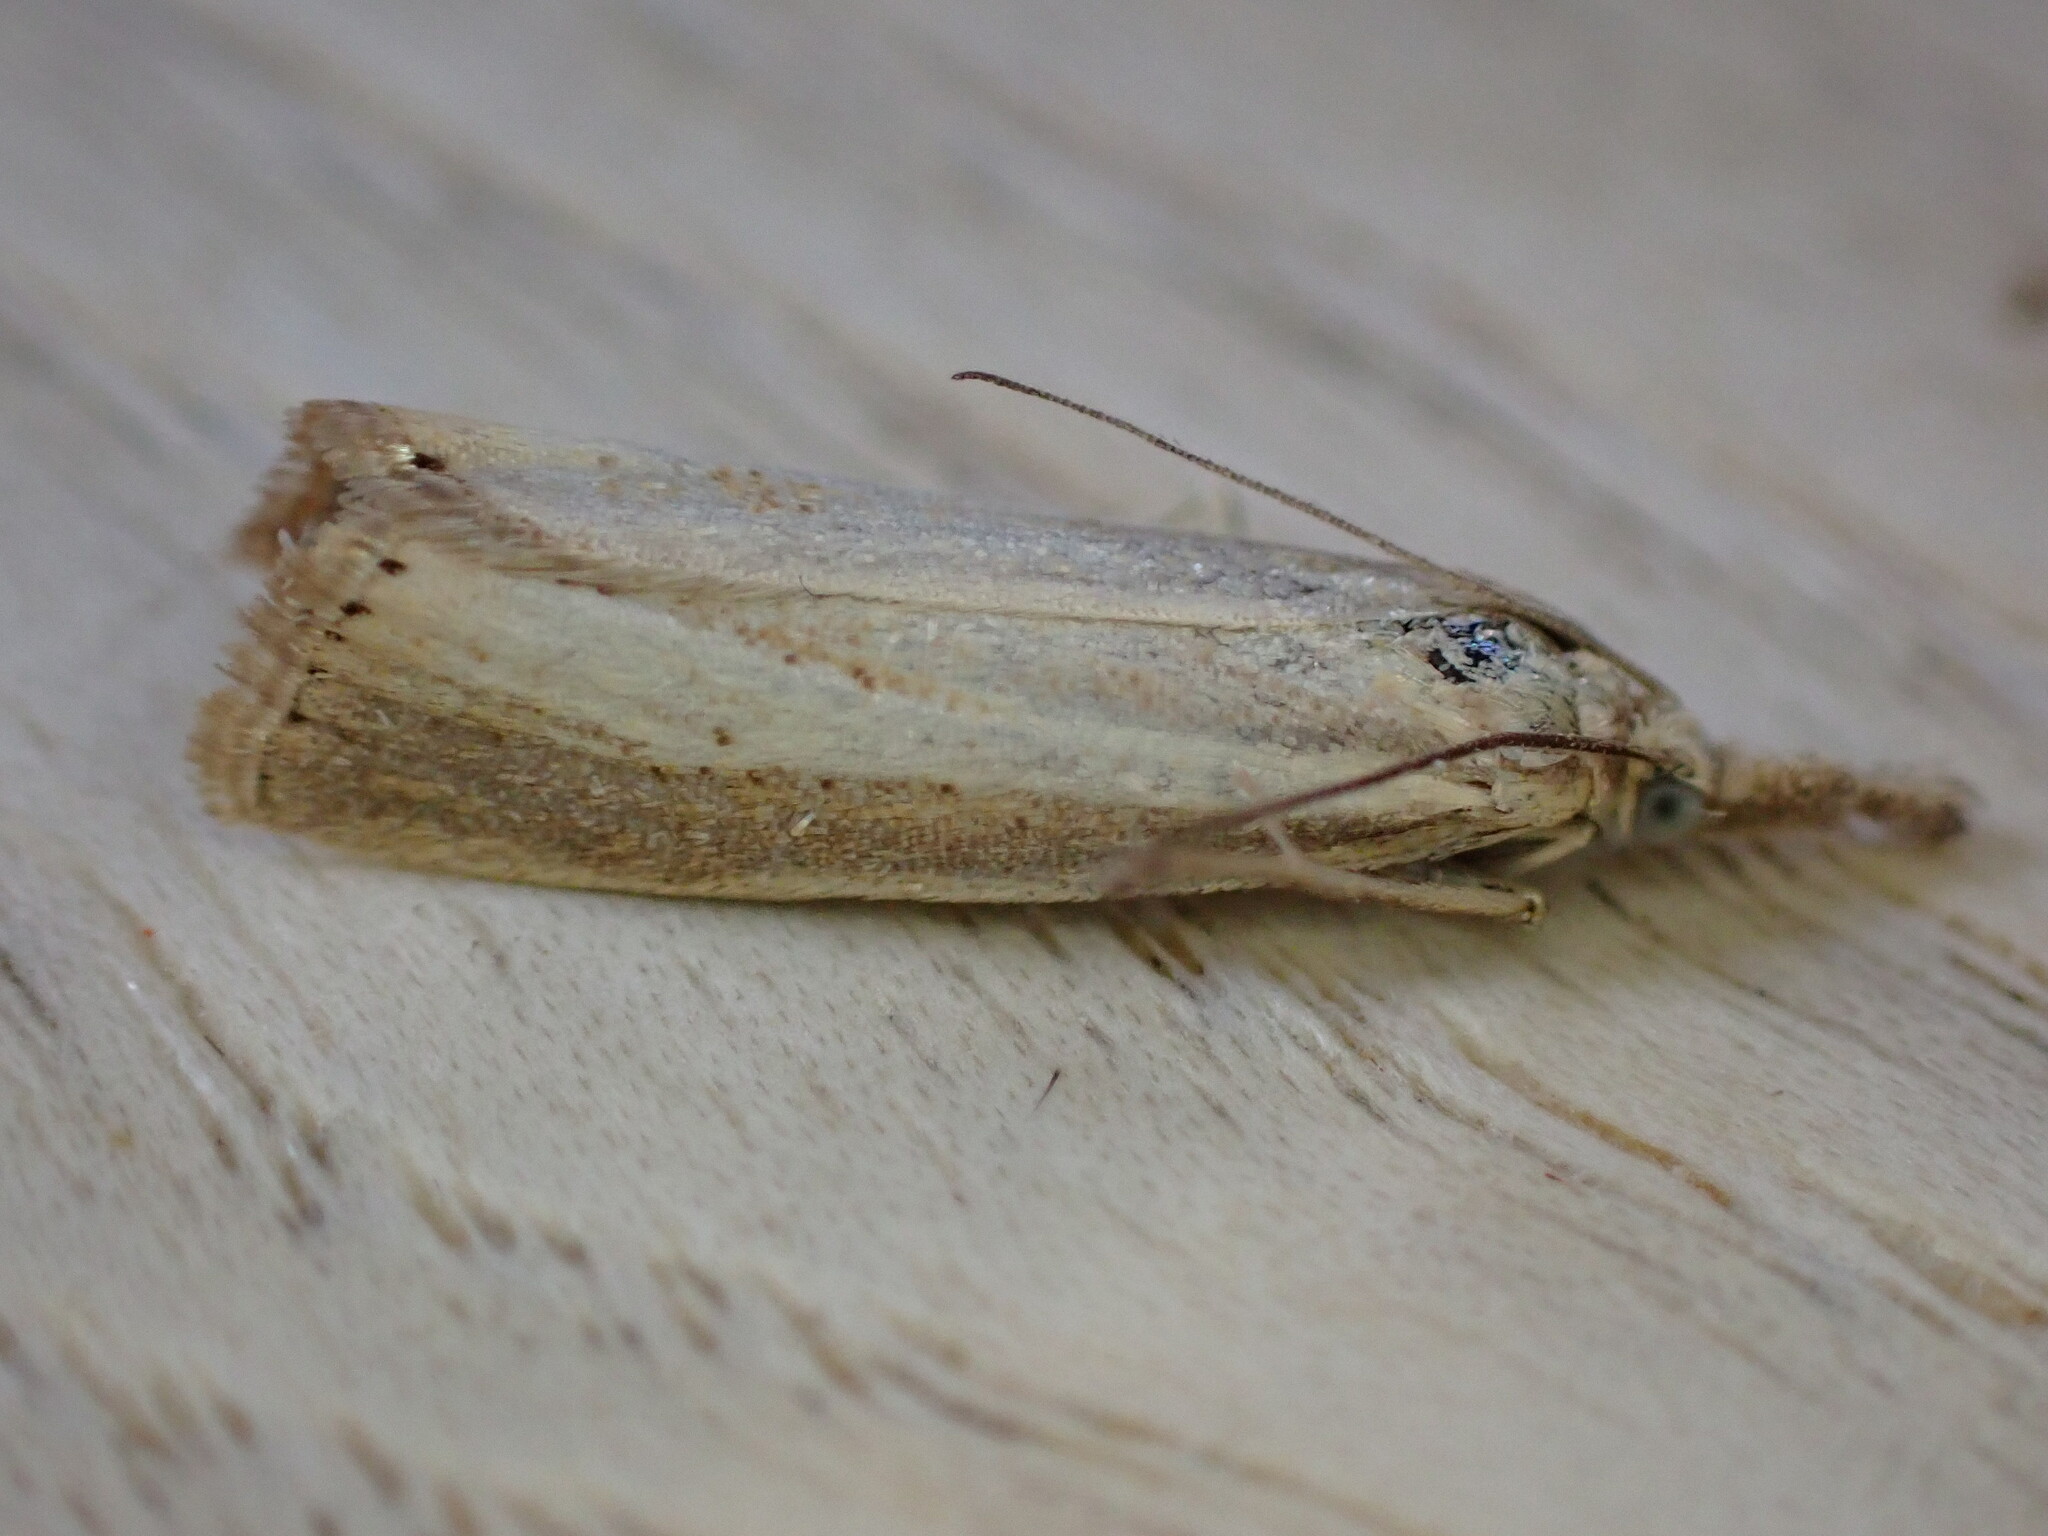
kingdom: Animalia
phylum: Arthropoda
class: Insecta
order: Lepidoptera
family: Crambidae
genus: Agriphila
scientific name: Agriphila straminella
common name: Straw grass-veneer
